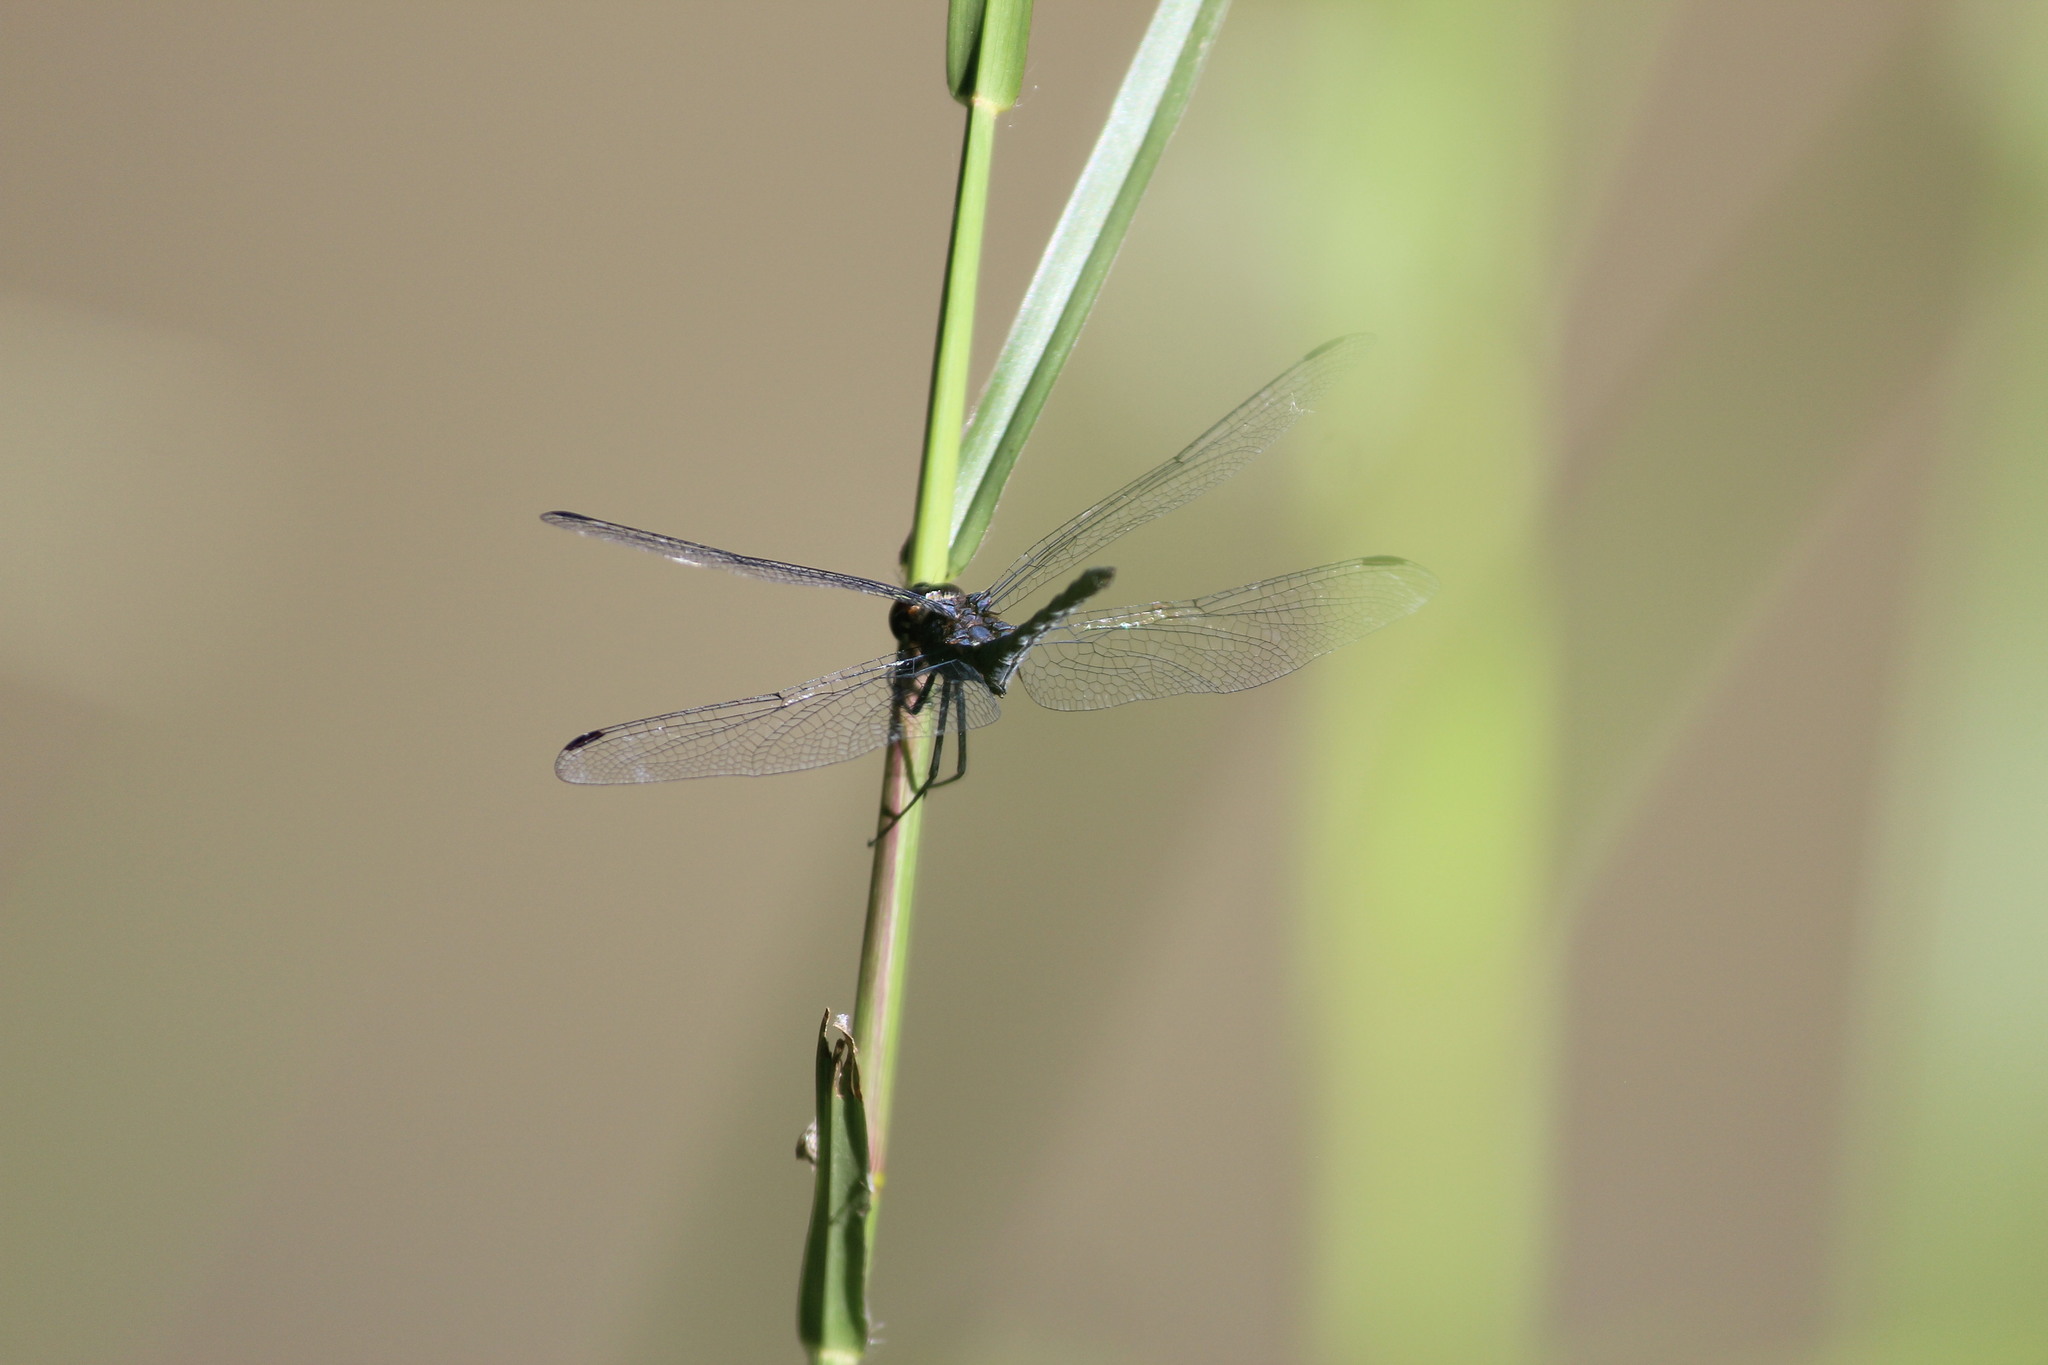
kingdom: Animalia
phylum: Arthropoda
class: Insecta
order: Odonata
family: Libellulidae
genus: Trithemis
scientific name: Trithemis furva
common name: Dark dropwing
